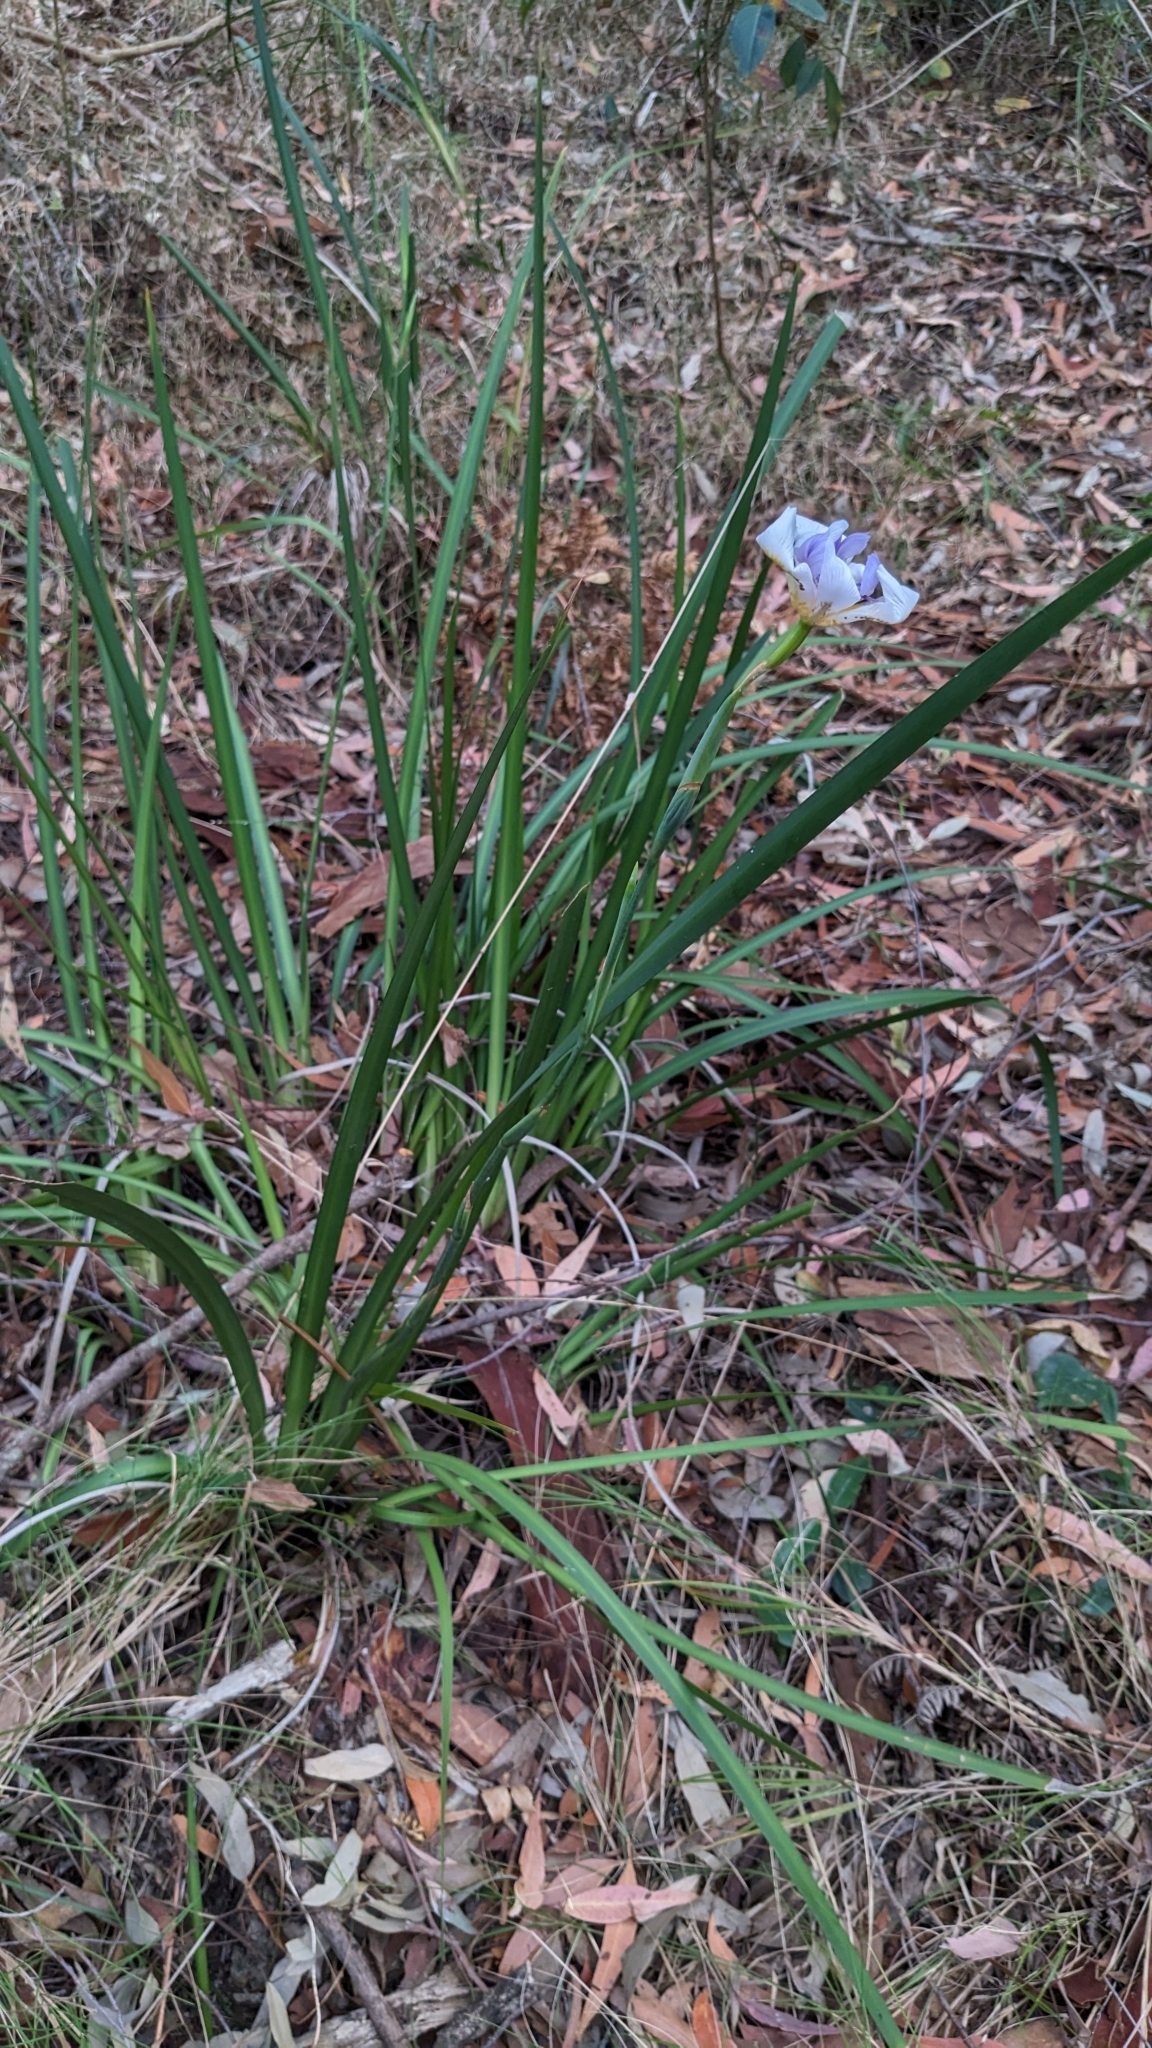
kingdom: Plantae
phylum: Tracheophyta
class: Liliopsida
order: Asparagales
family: Iridaceae
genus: Dietes
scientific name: Dietes grandiflora
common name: Wild iris
